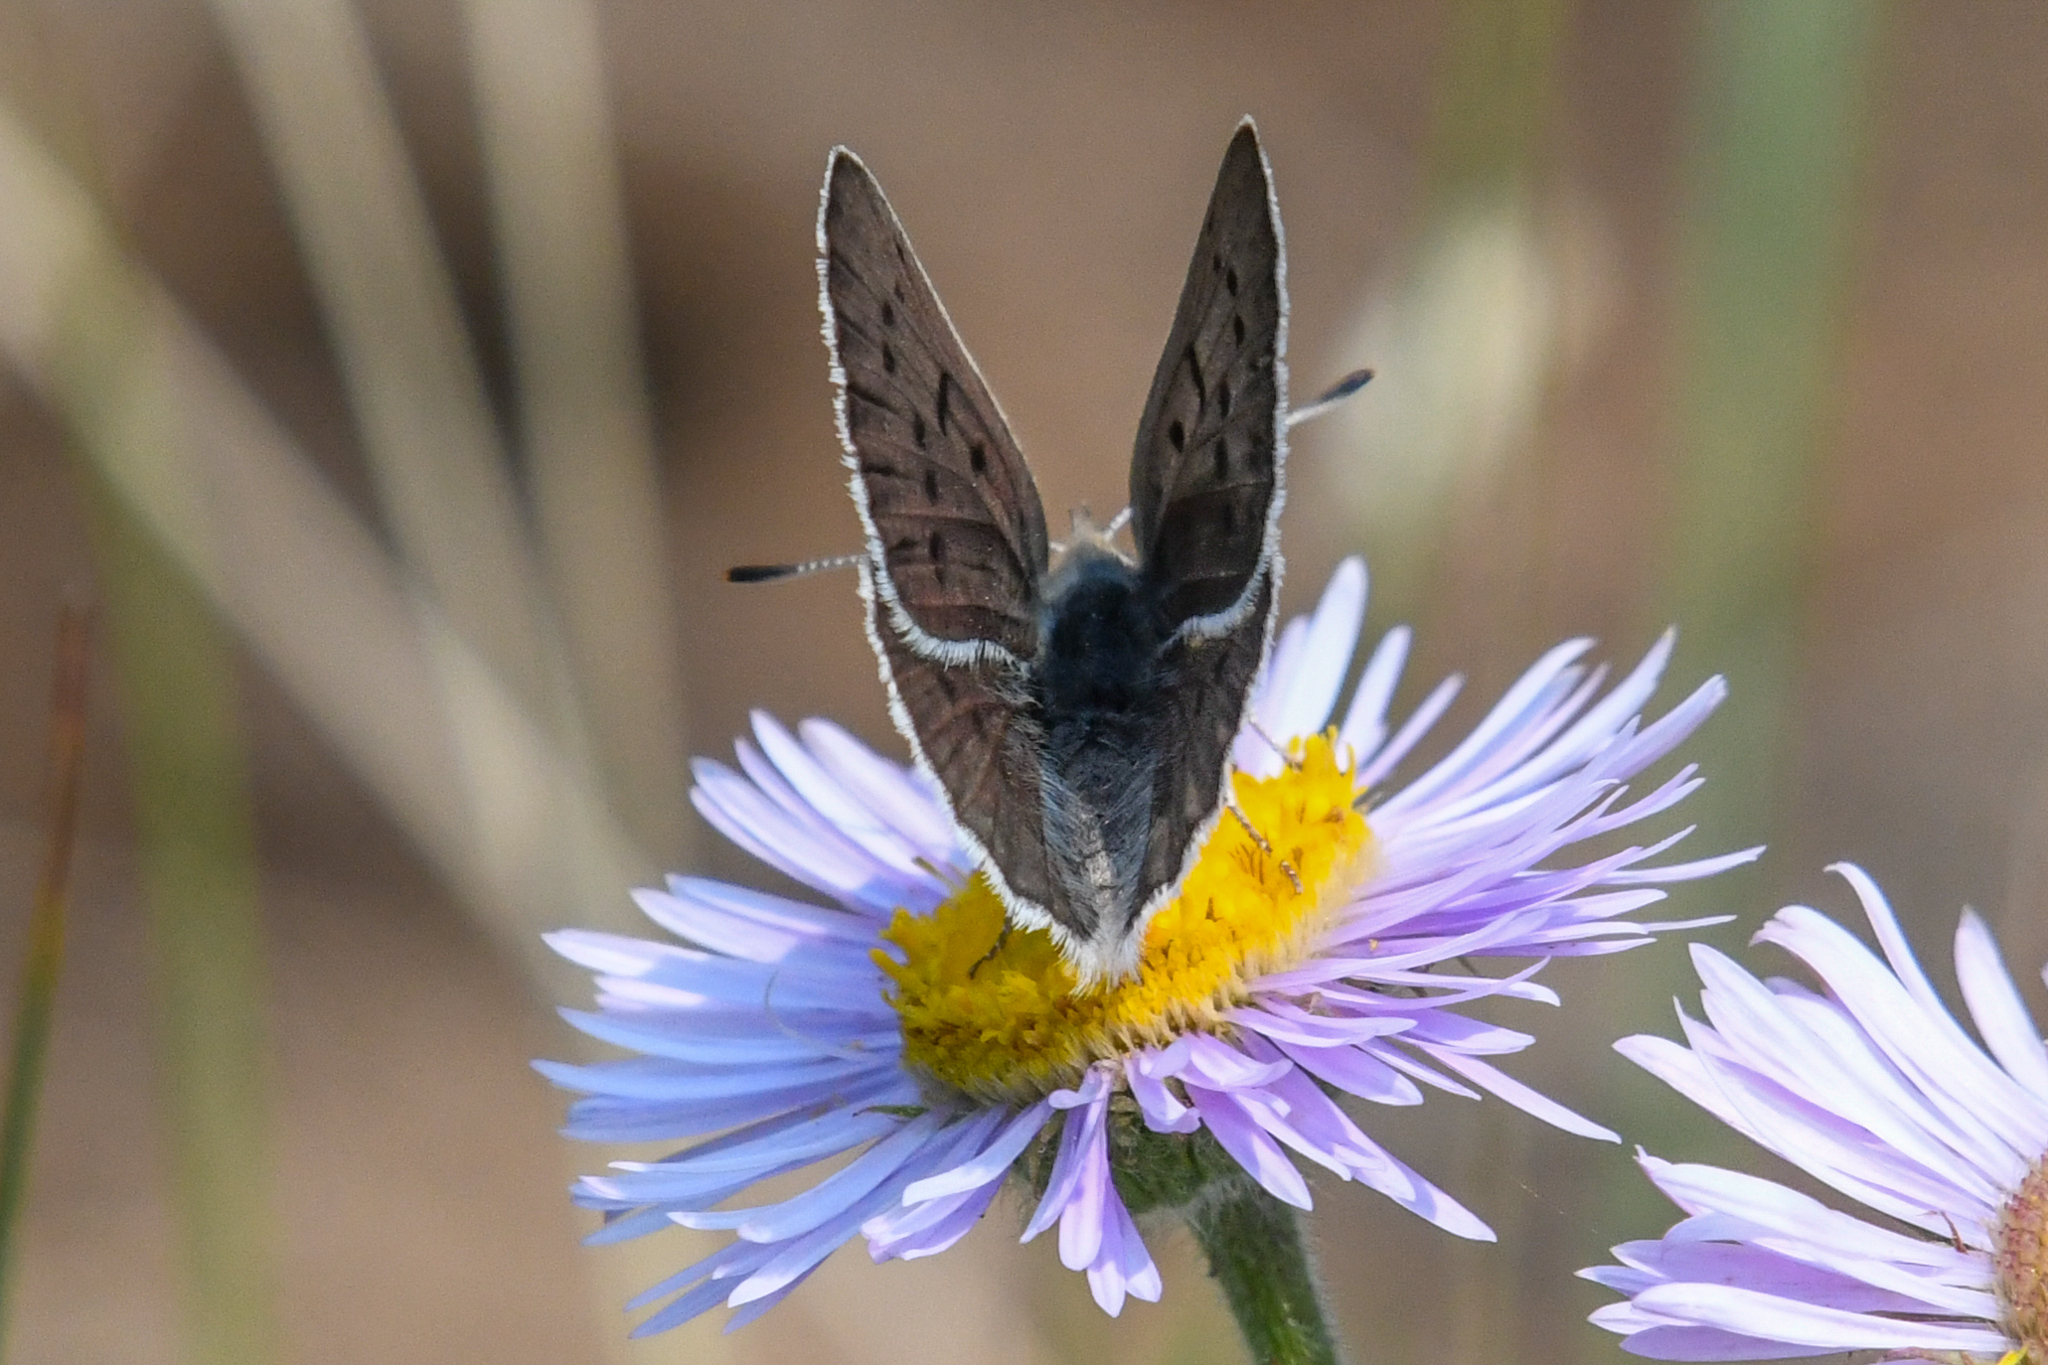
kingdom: Animalia
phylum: Arthropoda
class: Insecta
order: Lepidoptera
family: Lycaenidae
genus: Tharsalea
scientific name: Tharsalea heteronea
